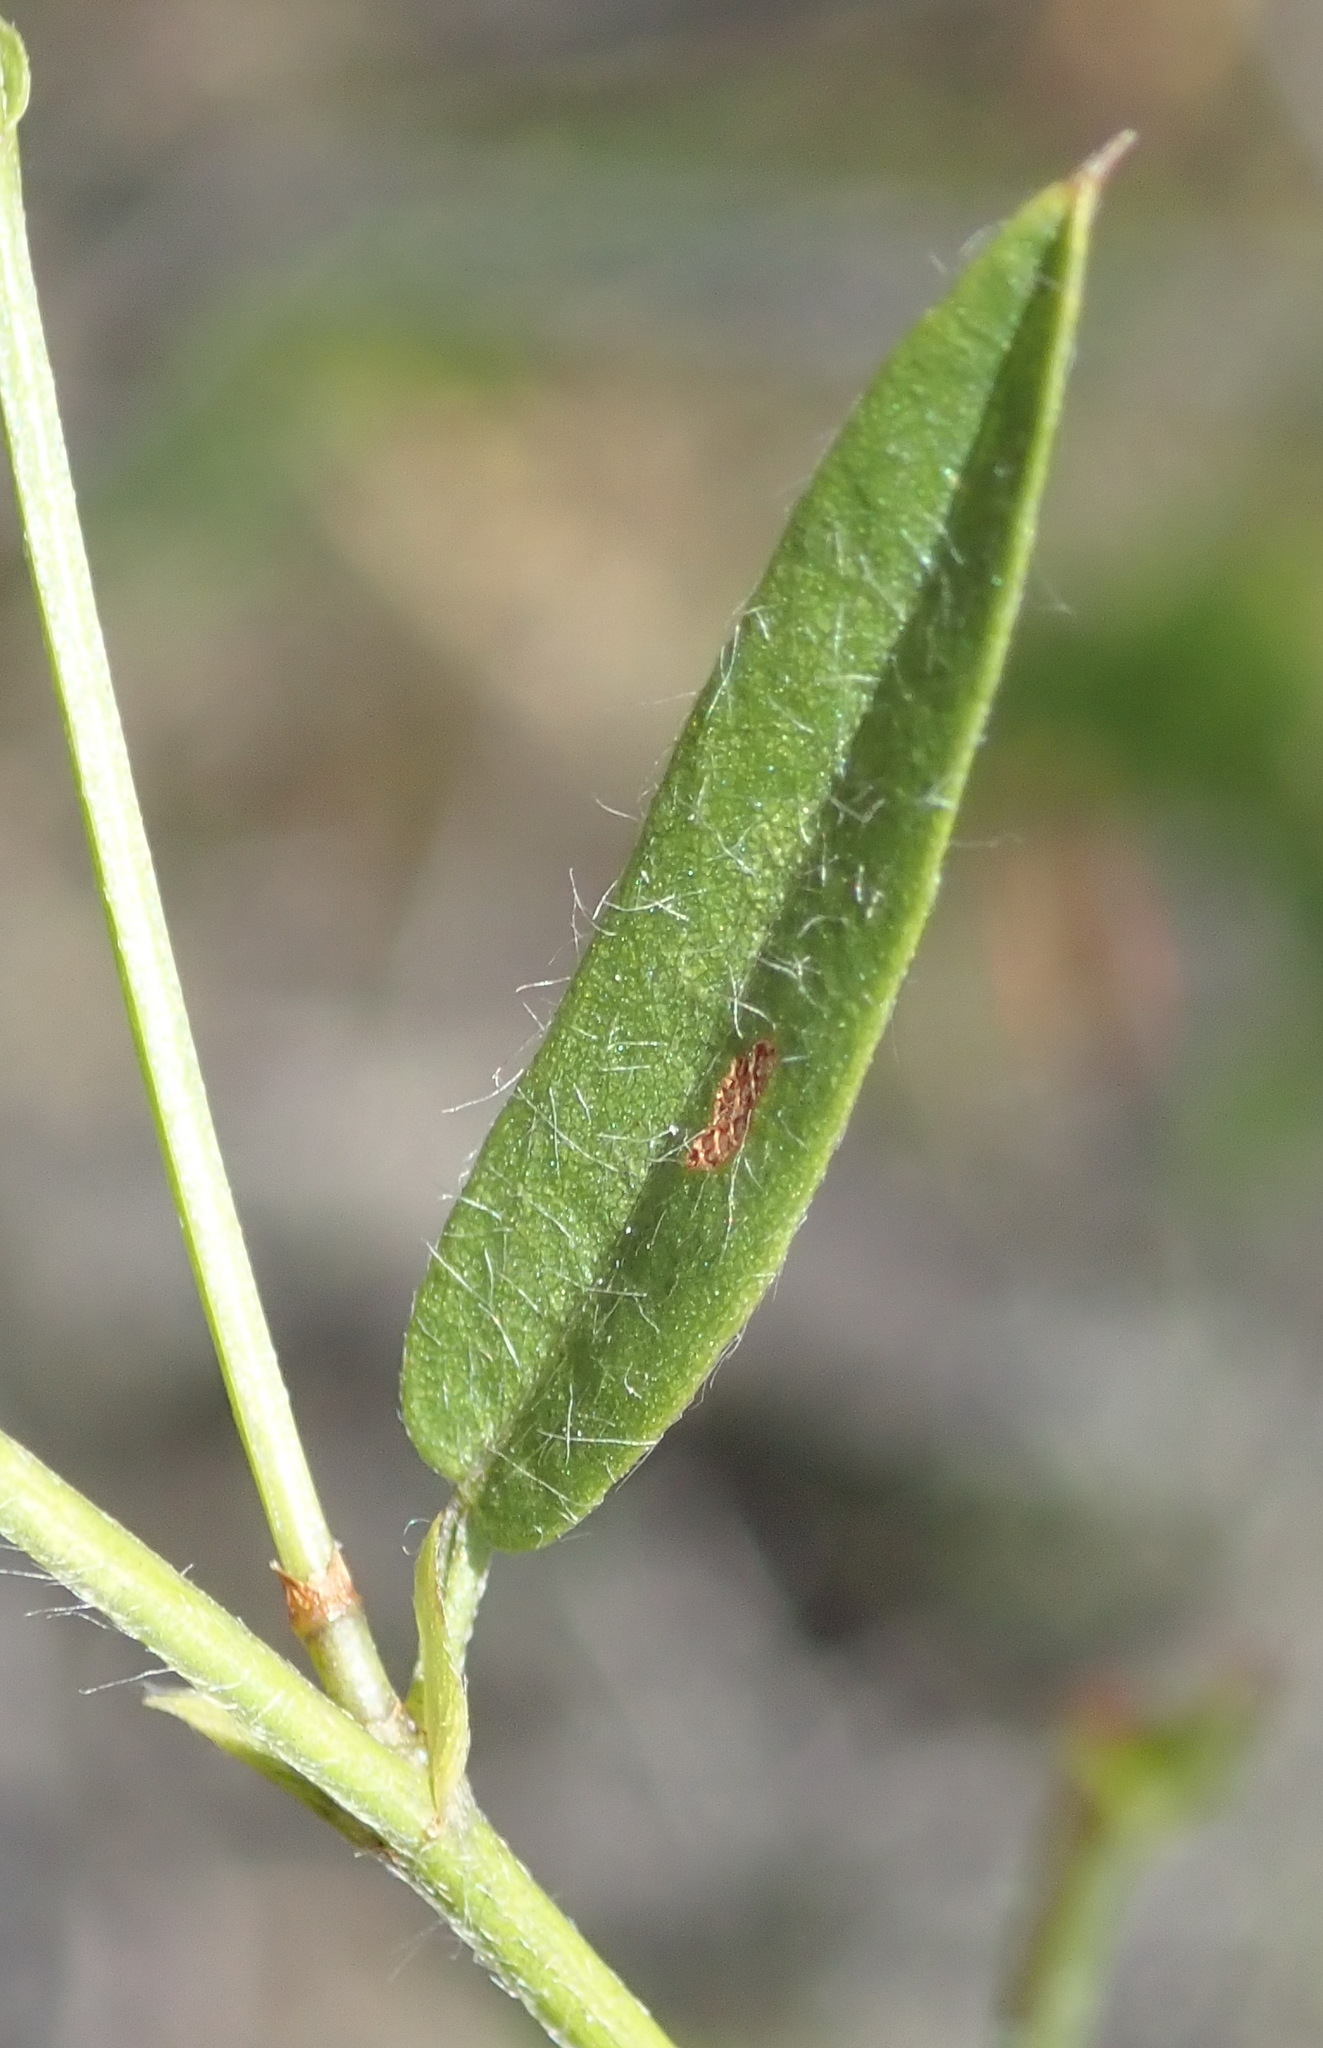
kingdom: Plantae
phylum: Tracheophyta
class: Magnoliopsida
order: Fabales
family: Fabaceae
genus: Psoralea
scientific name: Psoralea plauta
